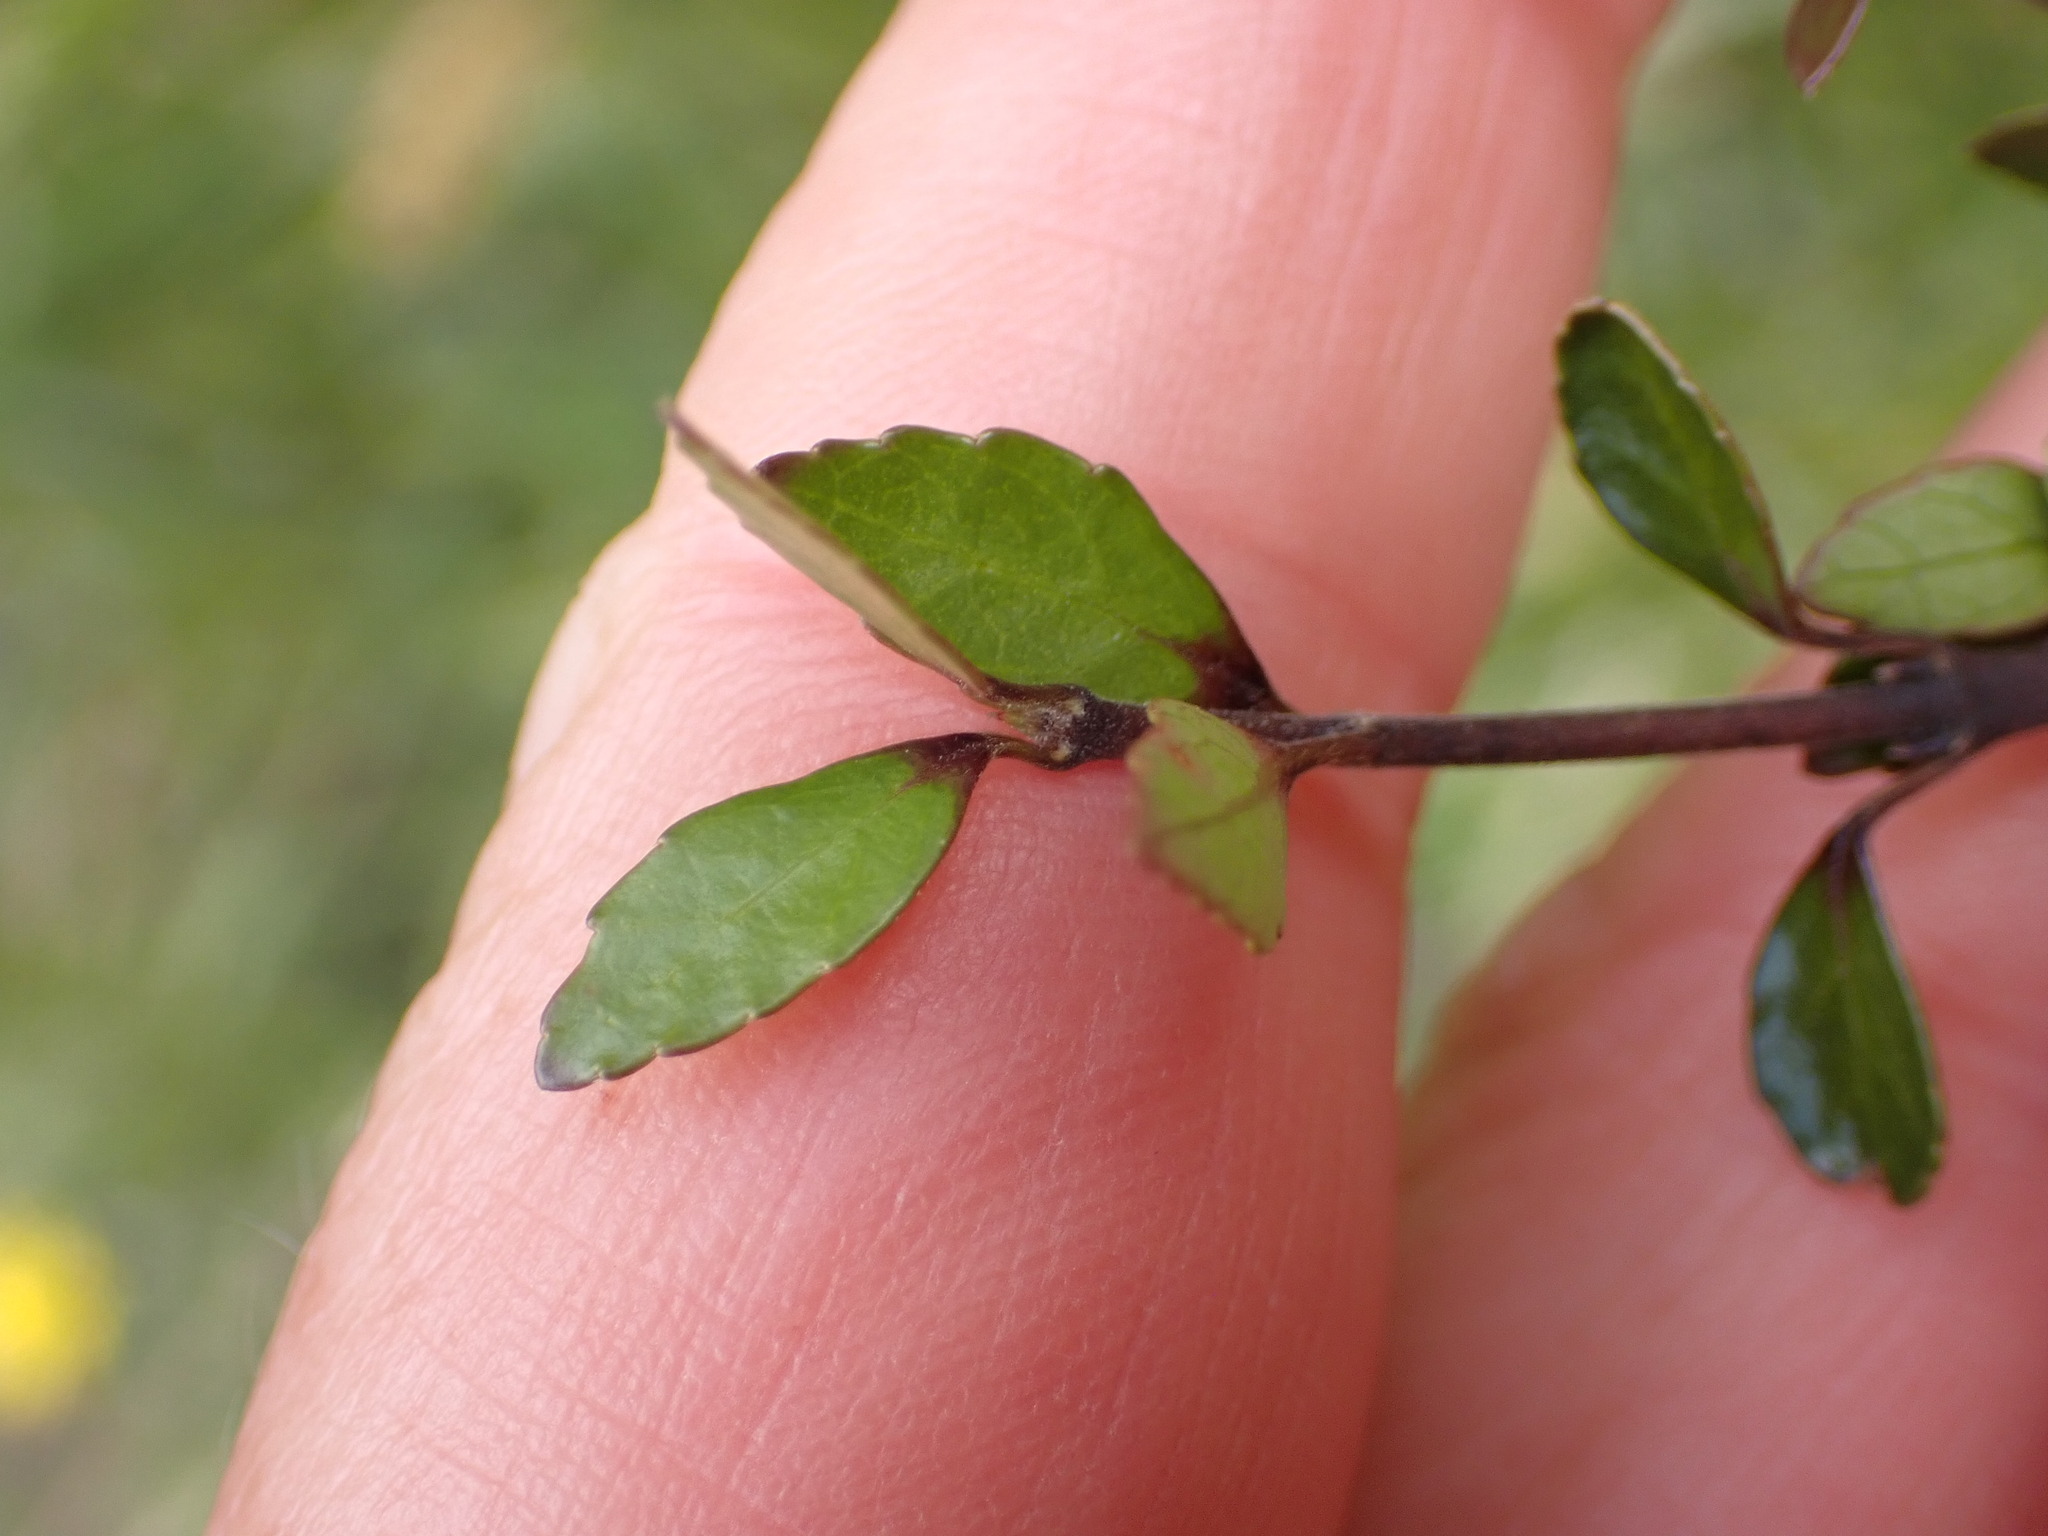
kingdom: Plantae
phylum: Tracheophyta
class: Magnoliopsida
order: Oxalidales
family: Elaeocarpaceae
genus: Aristotelia
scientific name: Aristotelia fruticosa
